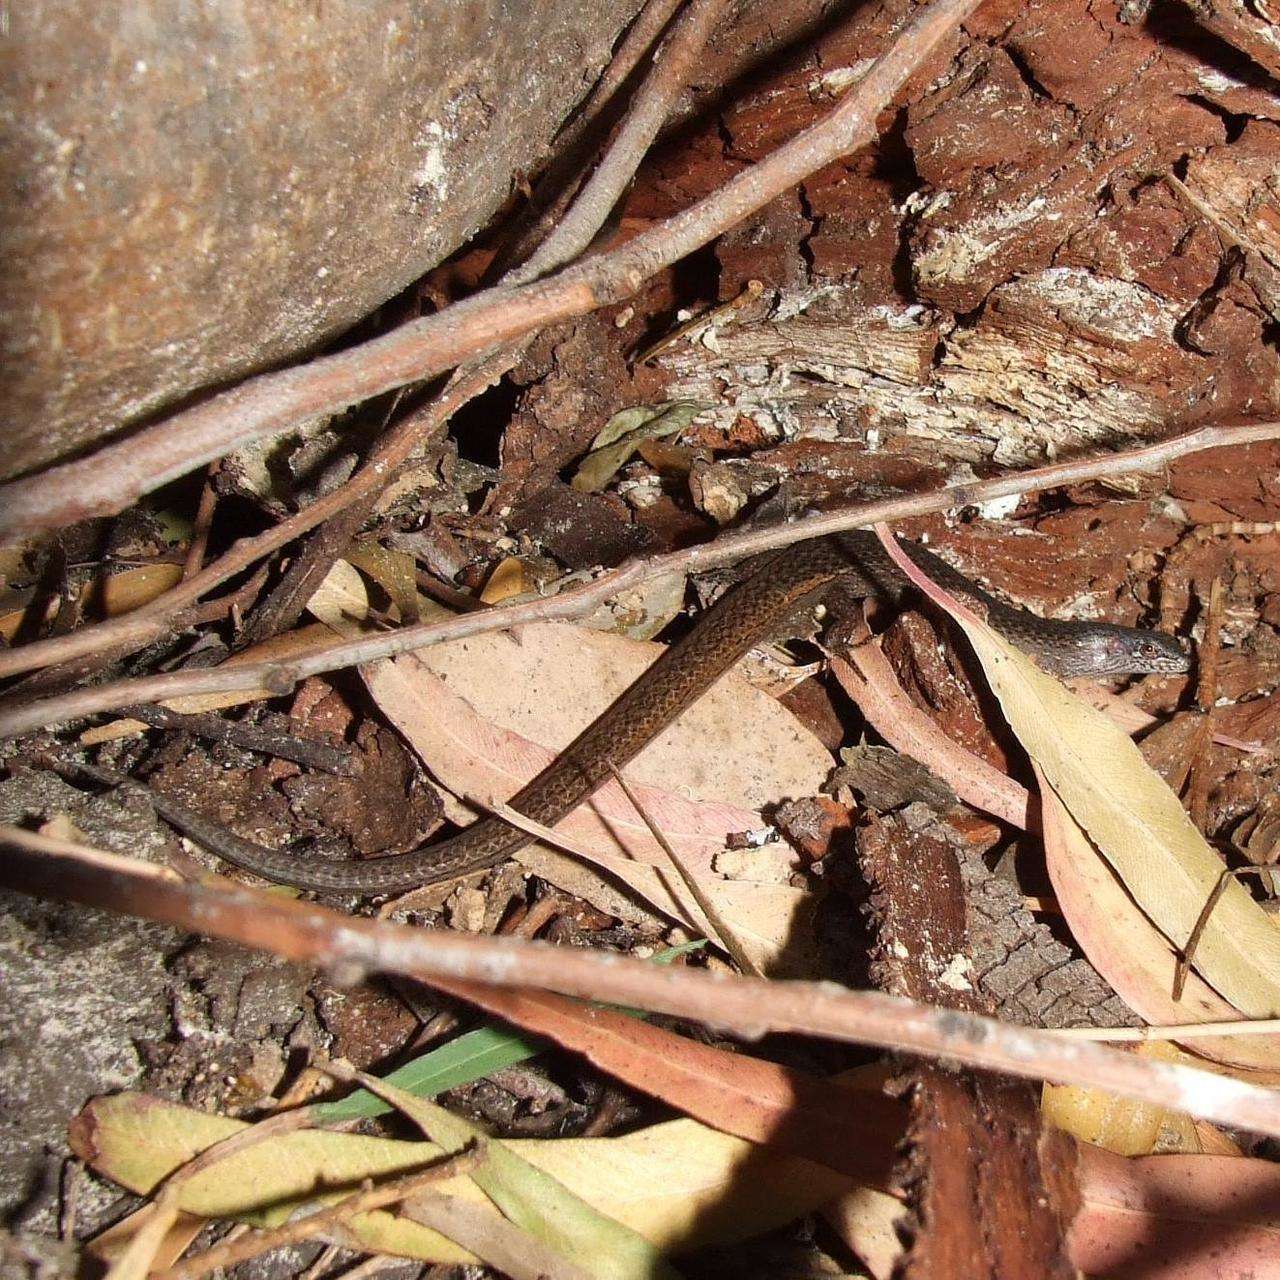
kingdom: Animalia
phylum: Chordata
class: Squamata
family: Scincidae
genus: Saproscincus
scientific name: Saproscincus mustelinus
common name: Southern weasel skink
